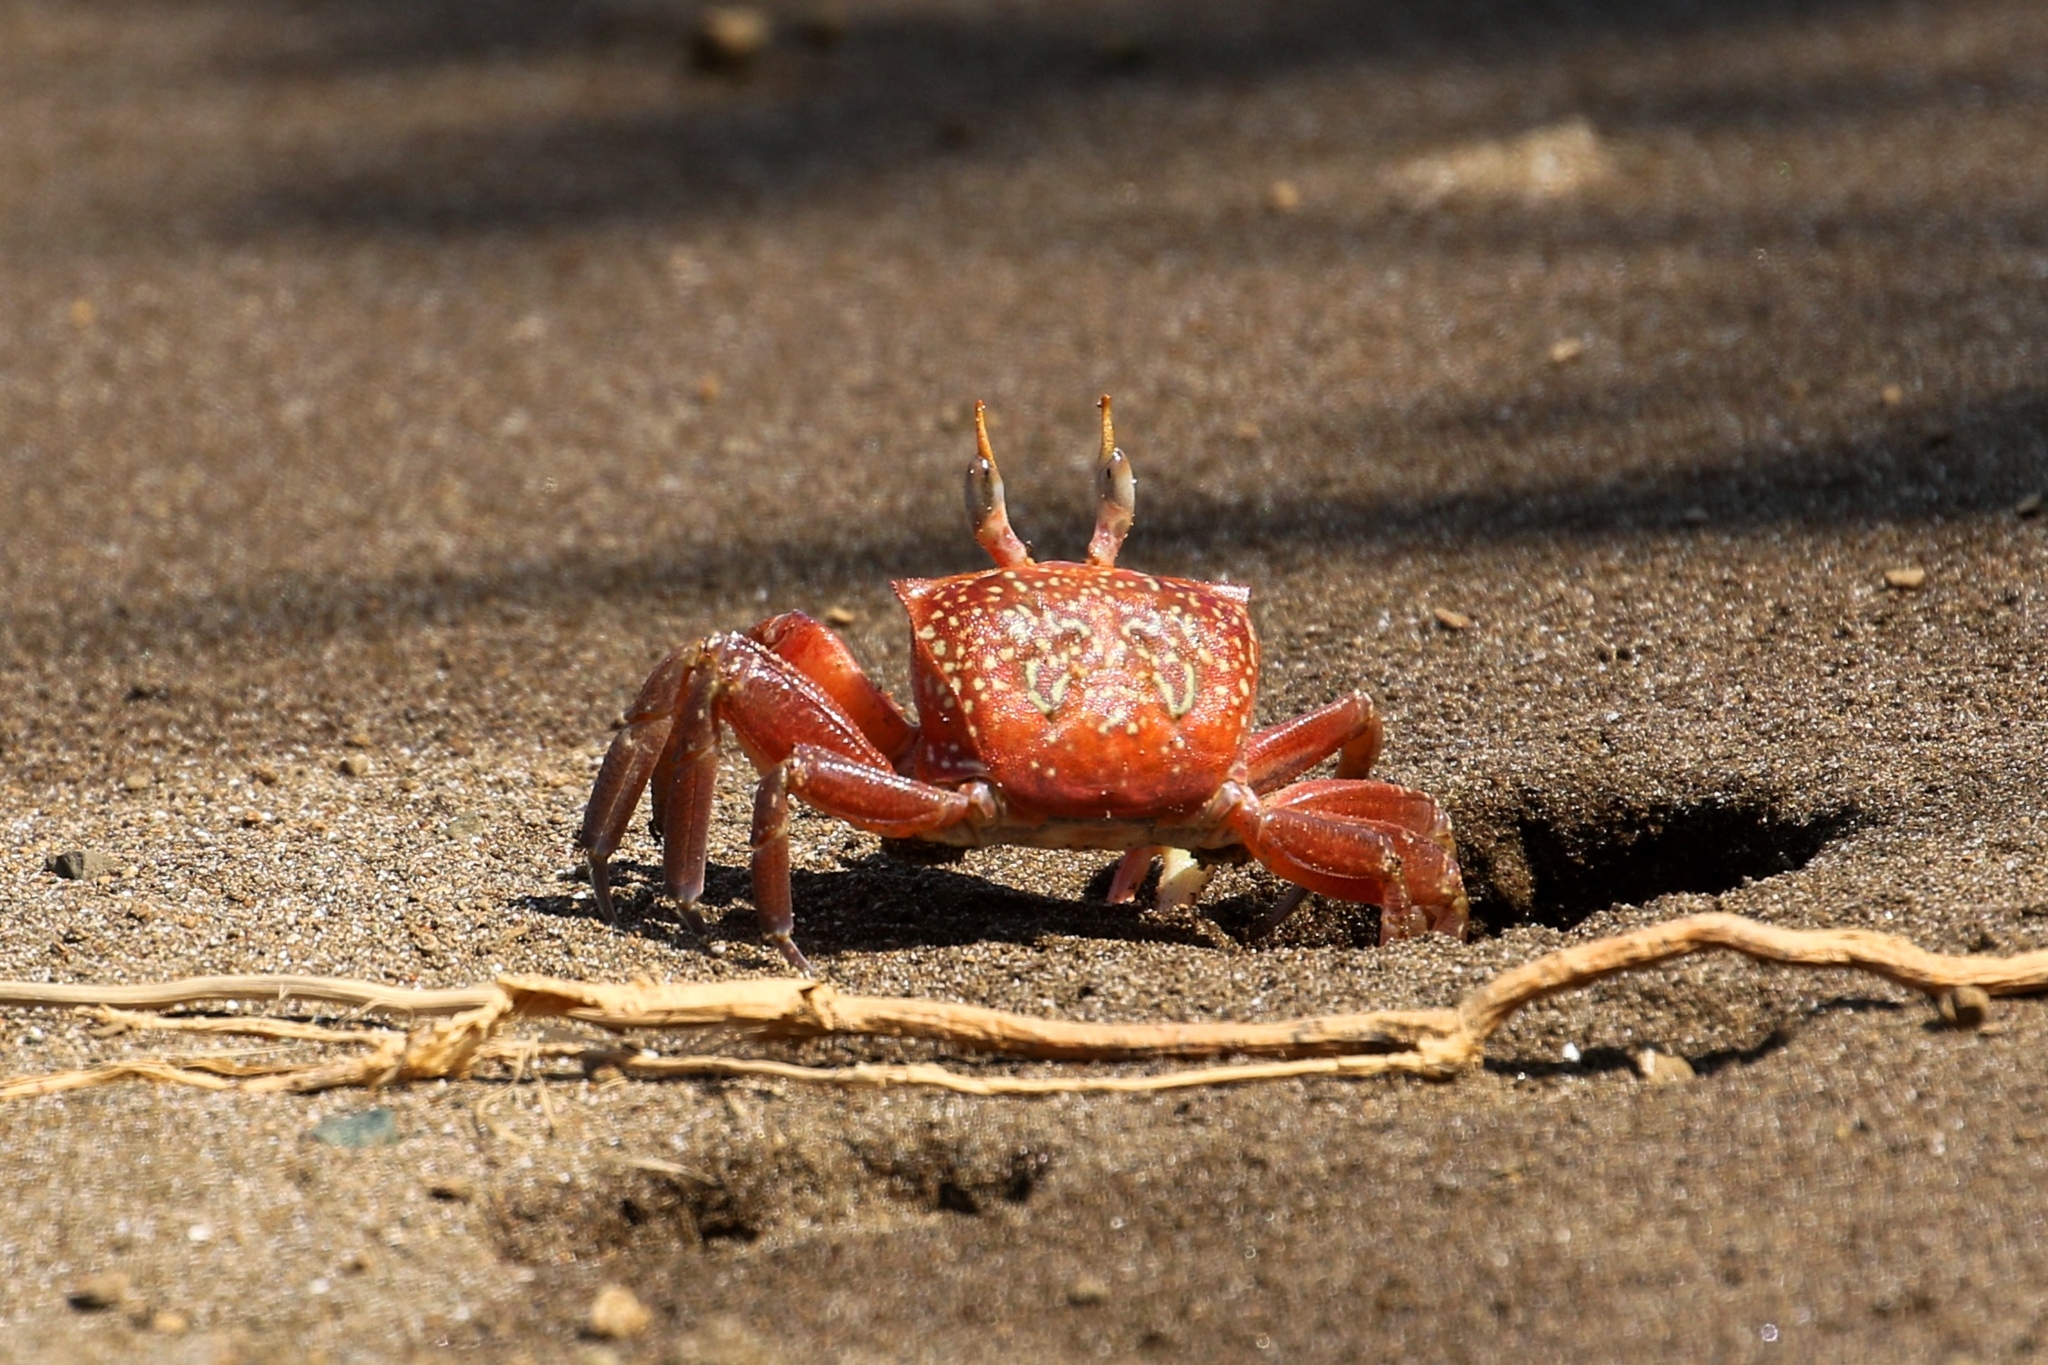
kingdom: Animalia
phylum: Arthropoda
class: Malacostraca
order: Decapoda
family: Ocypodidae
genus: Ocypode
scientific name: Ocypode gaudichaudii
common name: Pacific ghost crab
